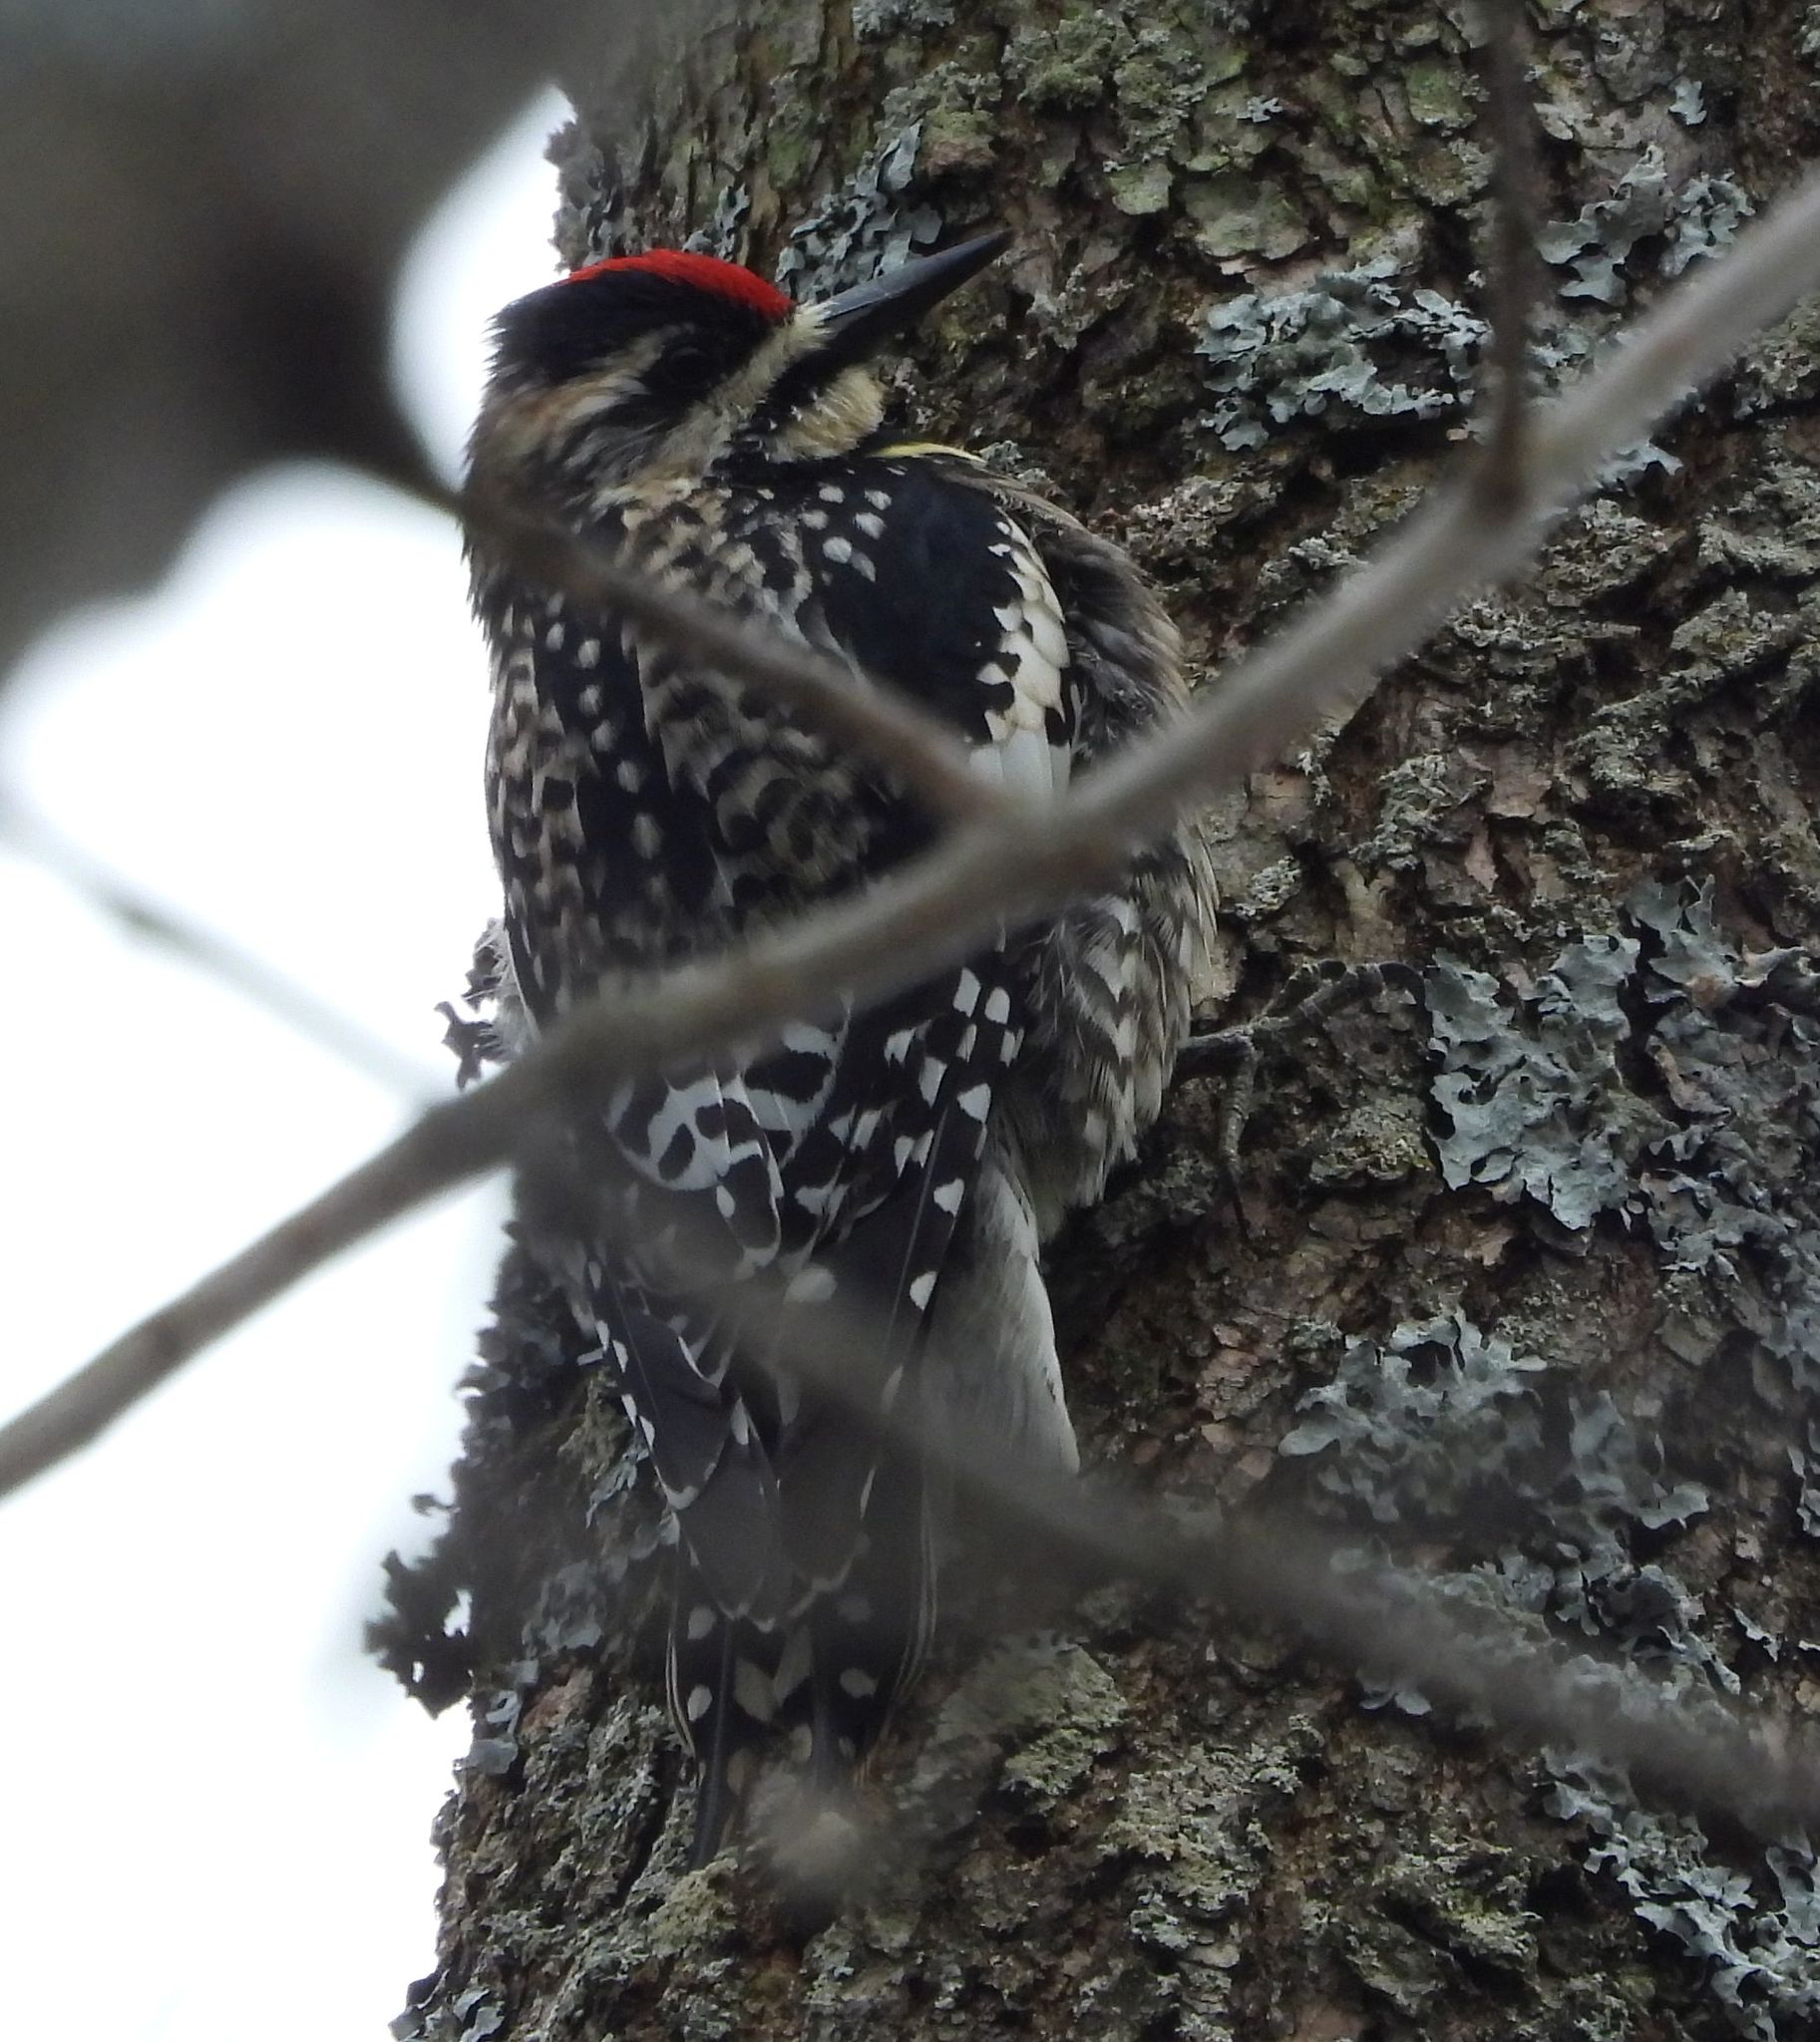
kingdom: Animalia
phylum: Chordata
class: Aves
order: Piciformes
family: Picidae
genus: Sphyrapicus
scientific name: Sphyrapicus varius
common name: Yellow-bellied sapsucker
